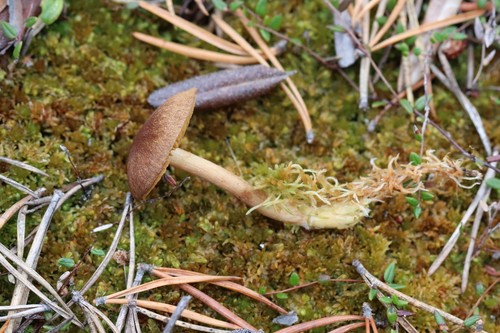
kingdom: Fungi
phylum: Basidiomycota
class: Agaricomycetes
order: Agaricales
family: Cortinariaceae
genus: Cortinarius
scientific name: Cortinarius chrysolitus
